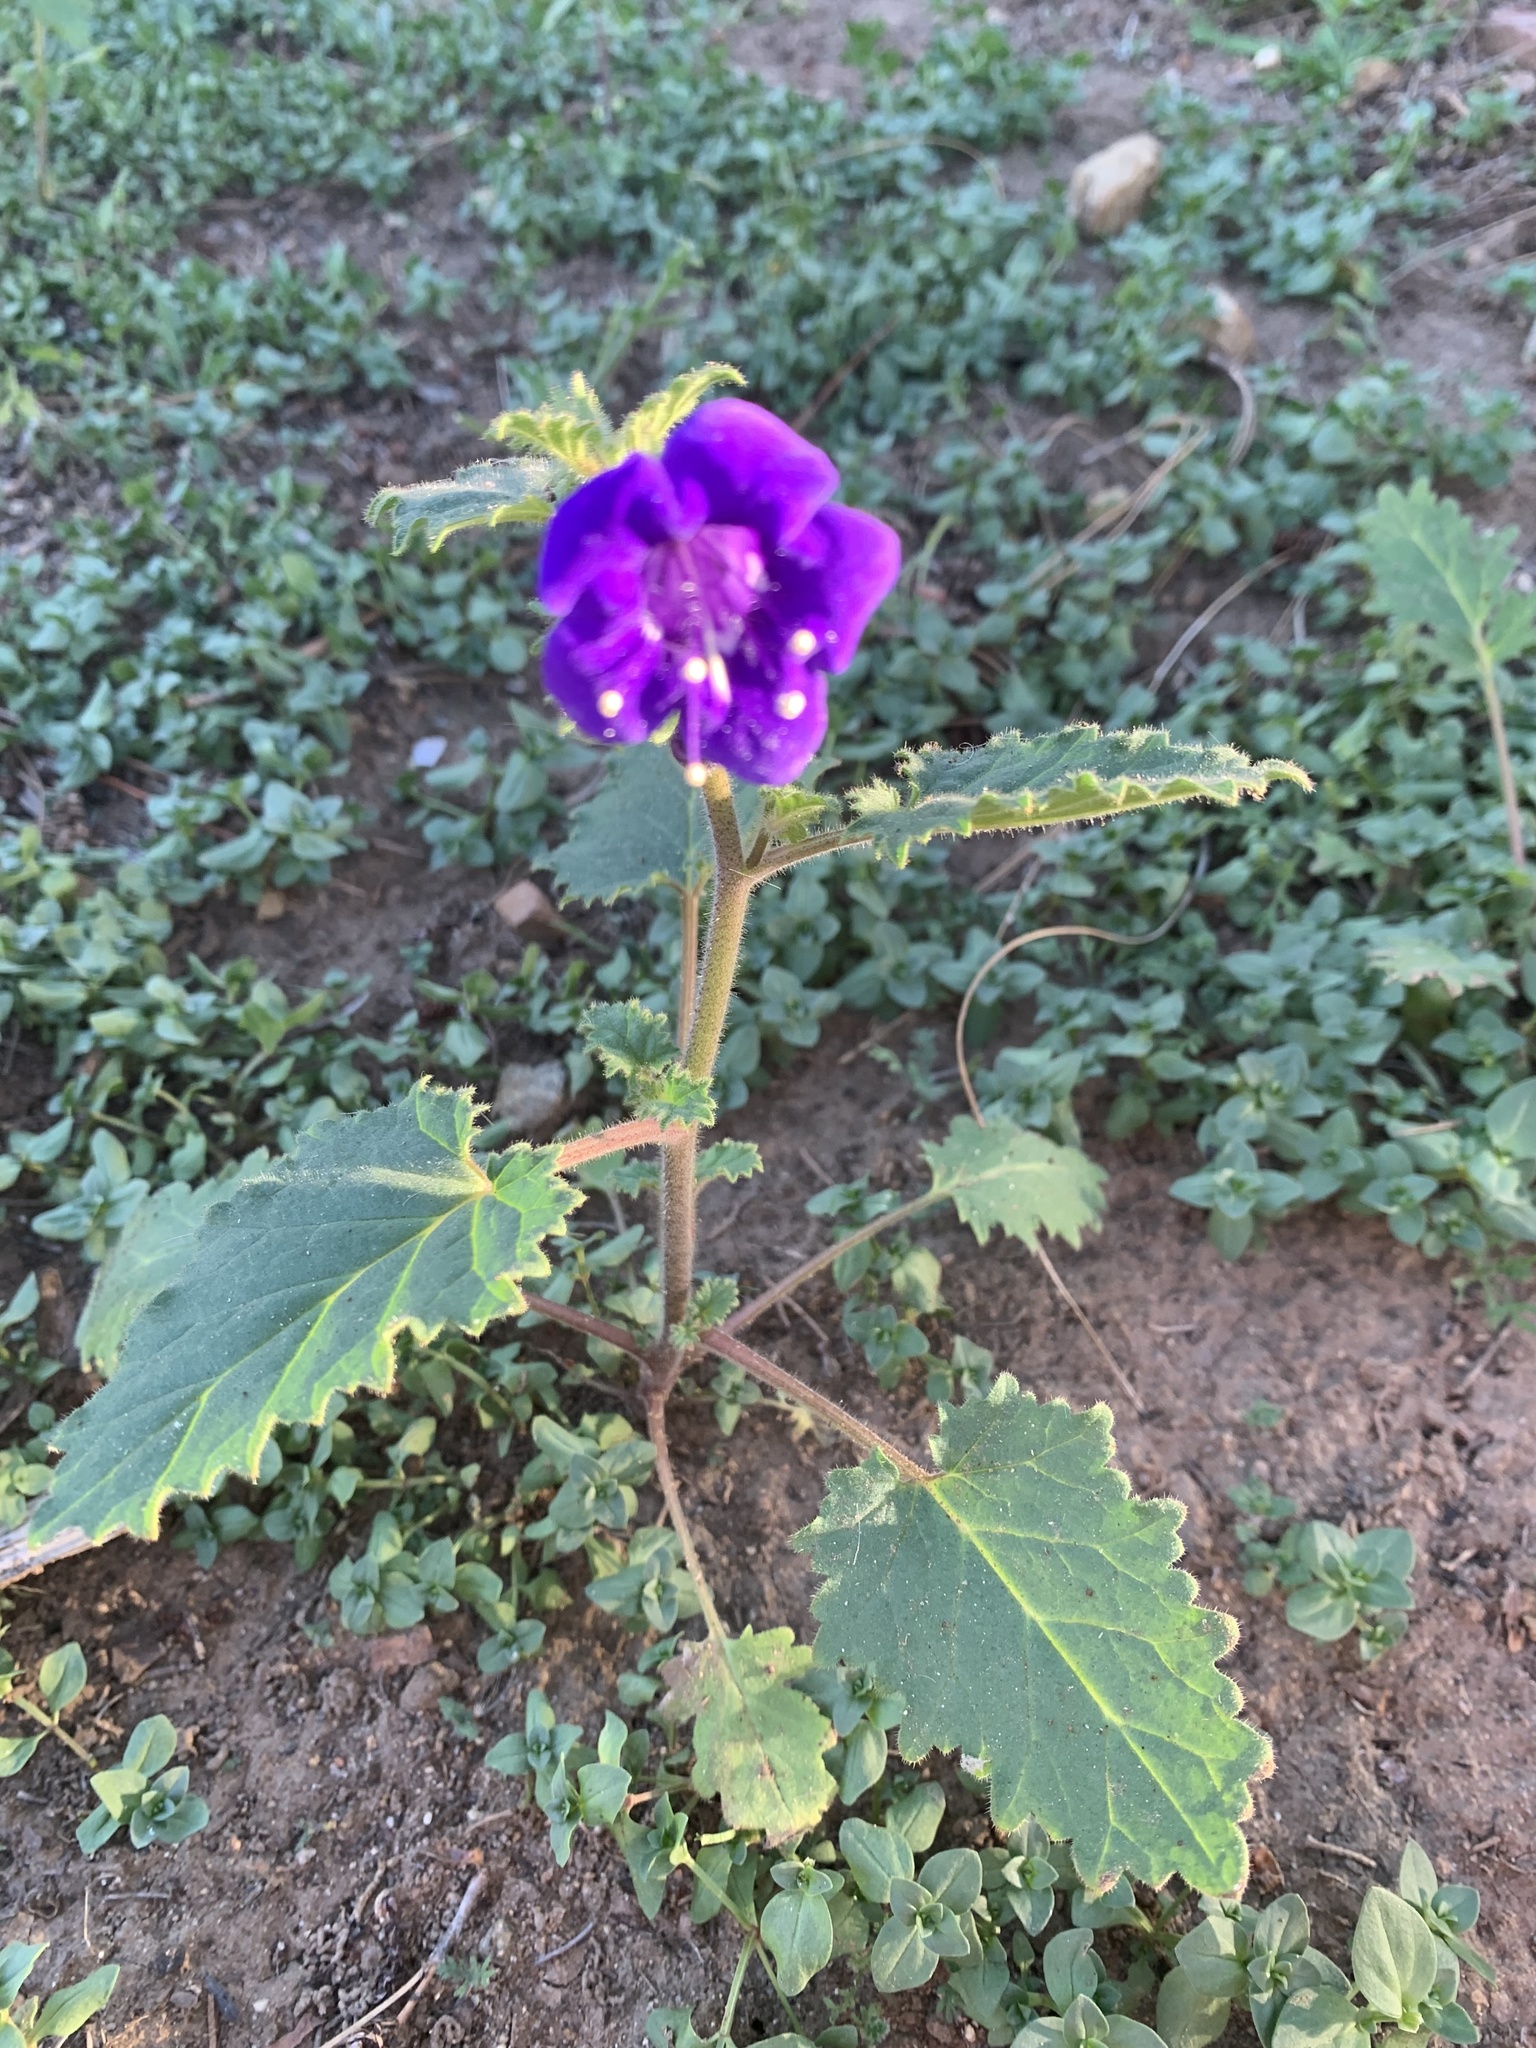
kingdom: Plantae
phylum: Tracheophyta
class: Magnoliopsida
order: Boraginales
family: Hydrophyllaceae
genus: Phacelia
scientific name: Phacelia parryi
